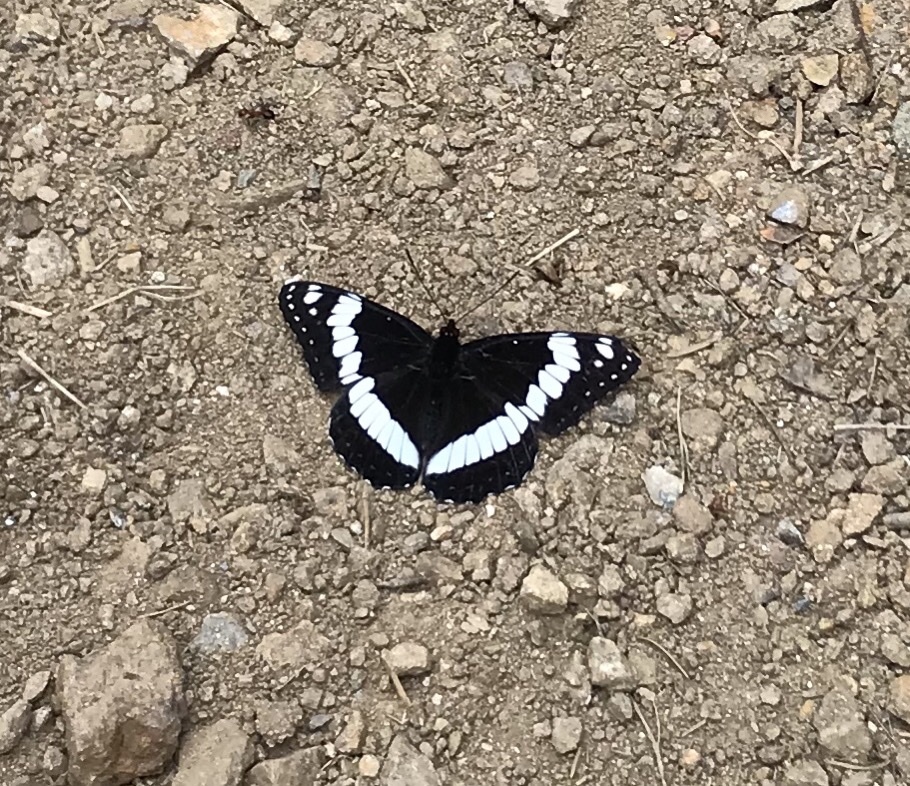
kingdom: Animalia
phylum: Arthropoda
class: Insecta
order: Lepidoptera
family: Nymphalidae
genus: Limenitis
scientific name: Limenitis weidemeyerii
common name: Weidemeyer's admiral
